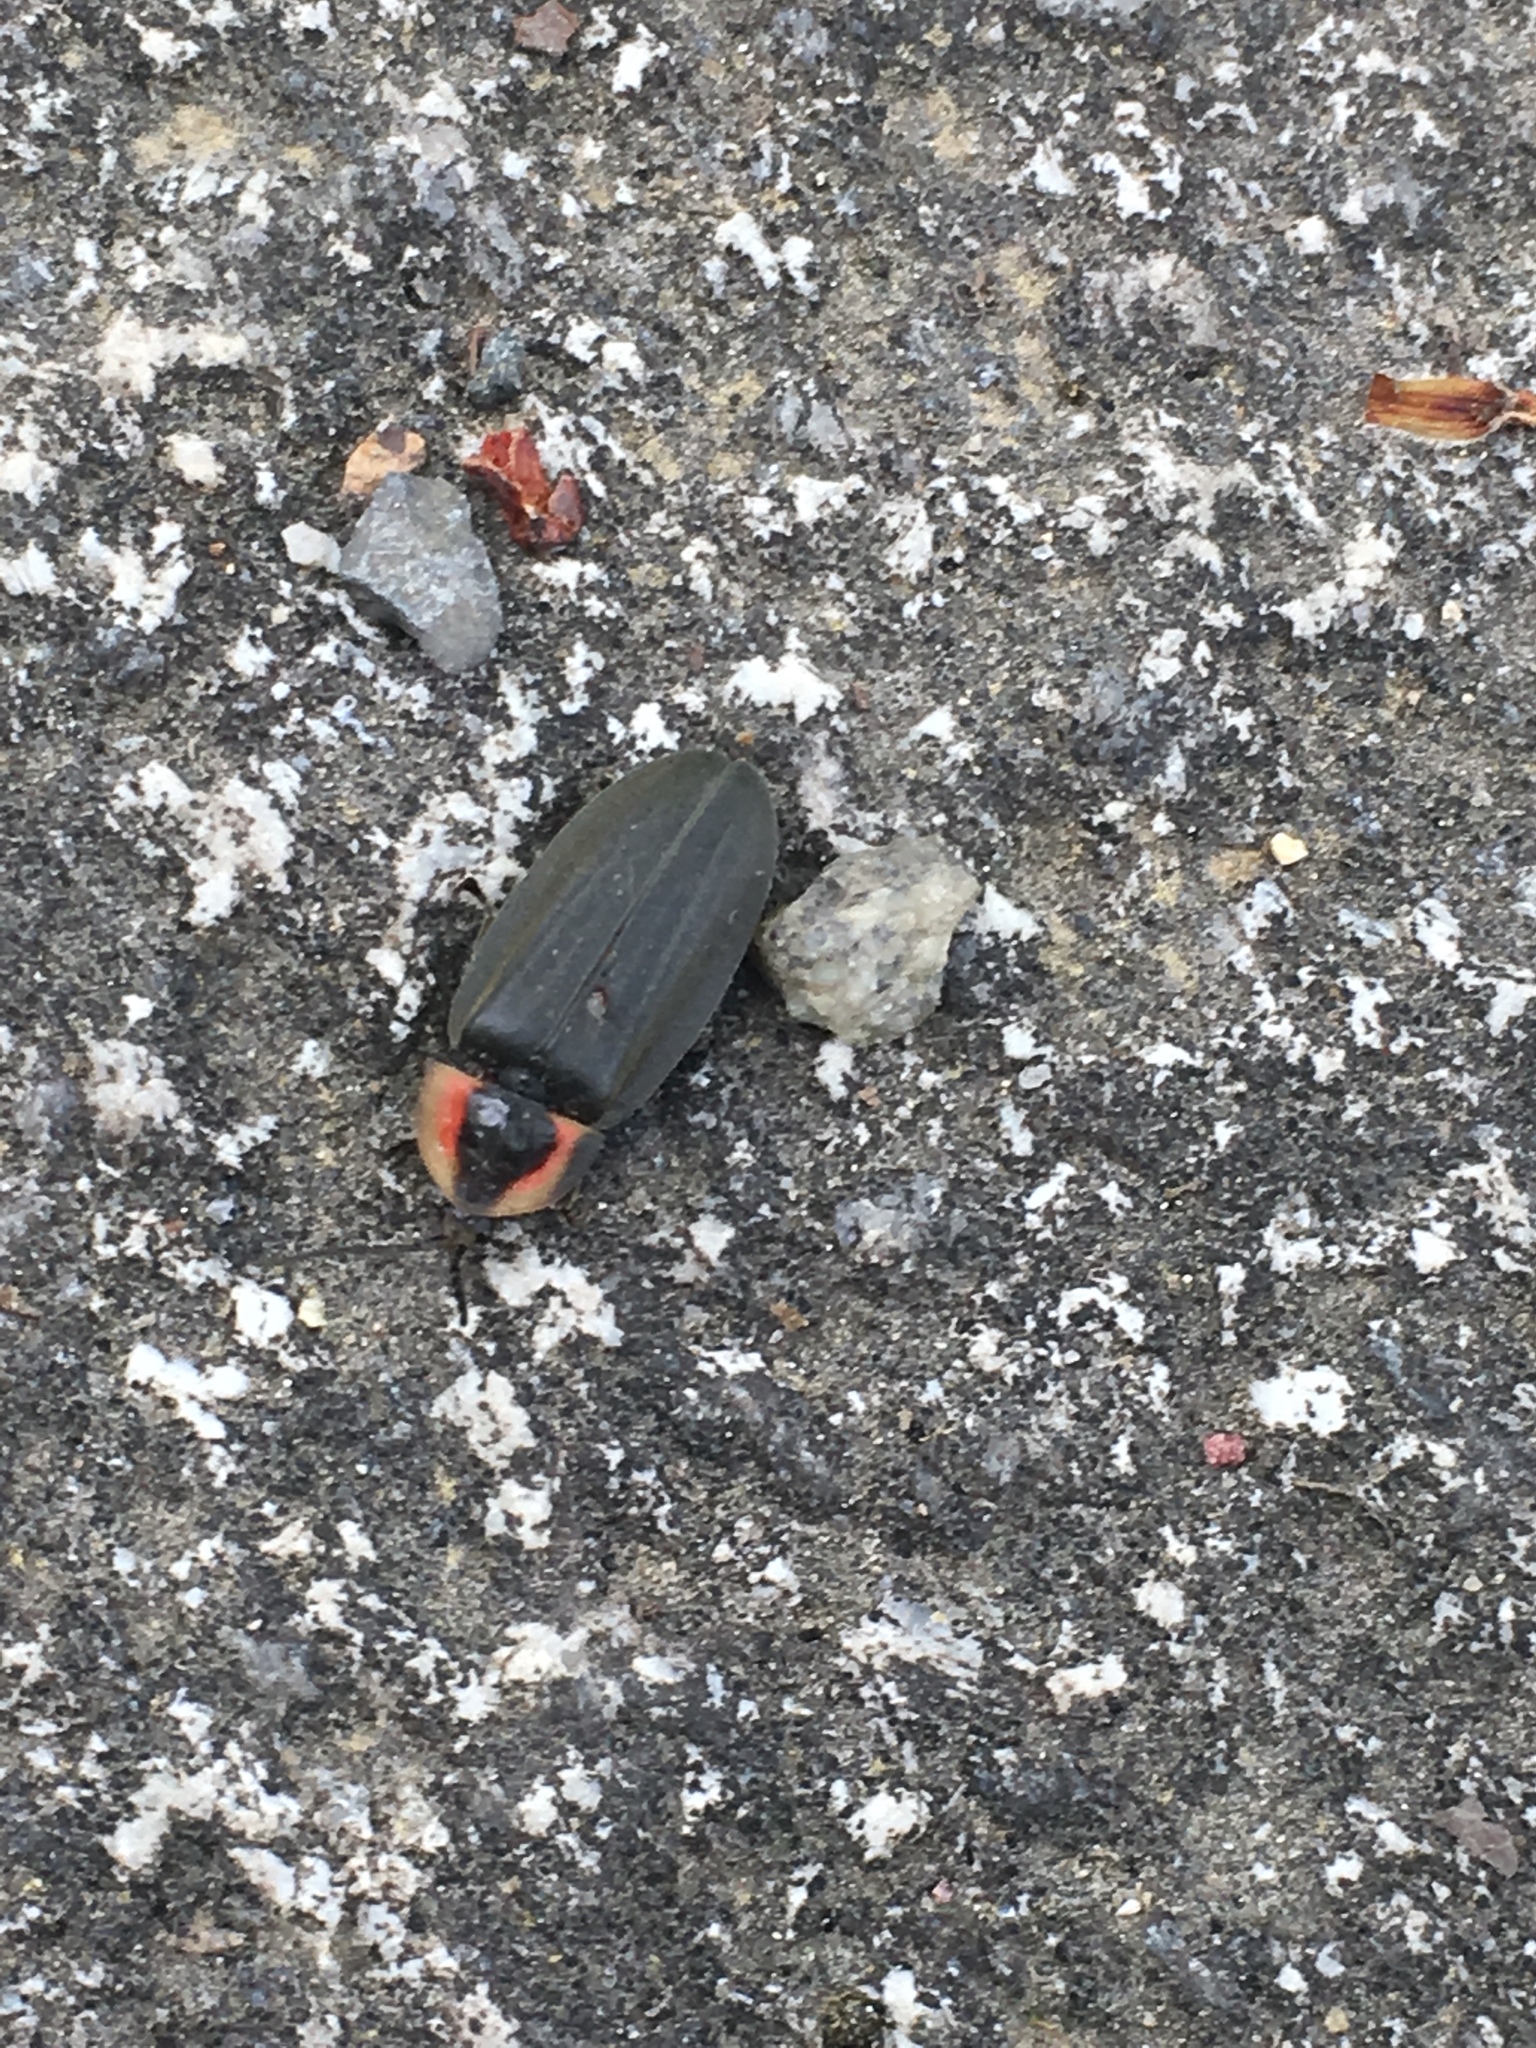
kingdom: Animalia
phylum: Arthropoda
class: Insecta
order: Coleoptera
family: Lampyridae
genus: Photinus
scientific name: Photinus corrusca
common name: Winter firefly
